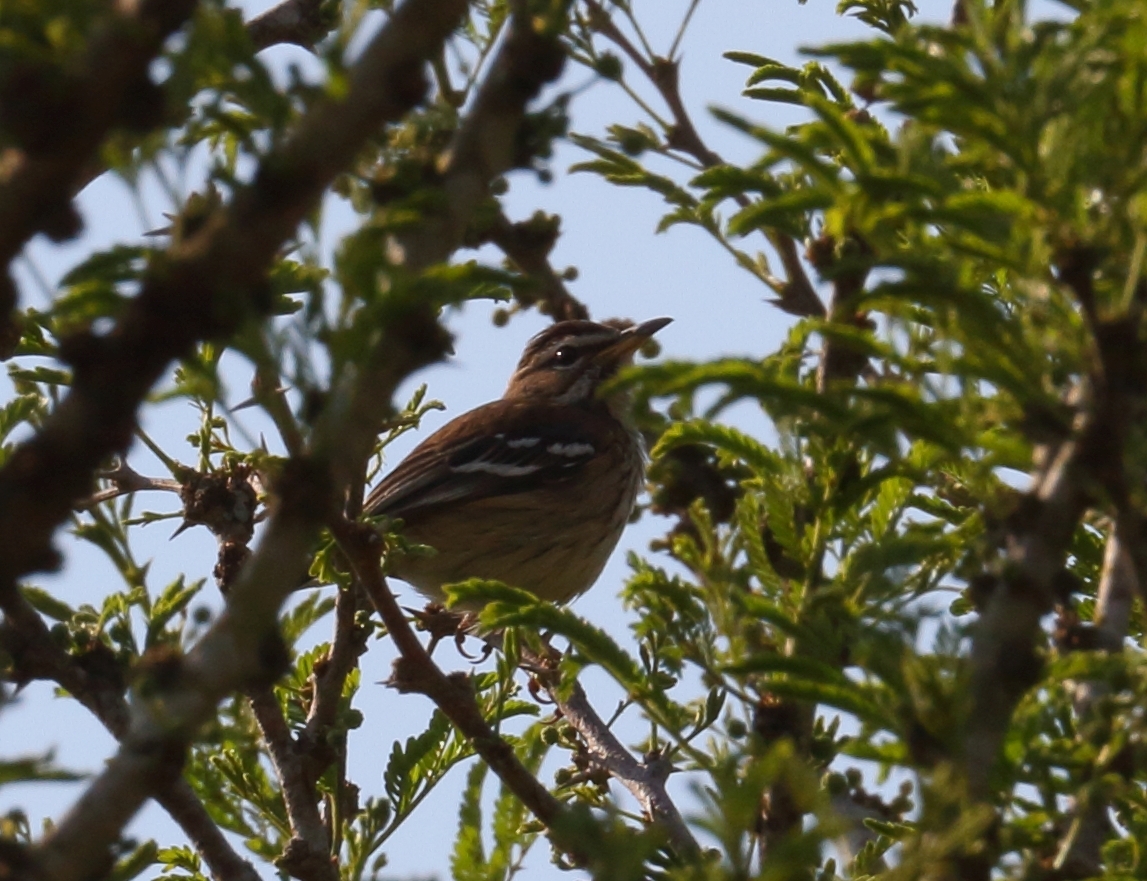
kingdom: Animalia
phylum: Chordata
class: Aves
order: Passeriformes
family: Muscicapidae
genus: Erythropygia
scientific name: Erythropygia leucophrys
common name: White-browed scrub robin
